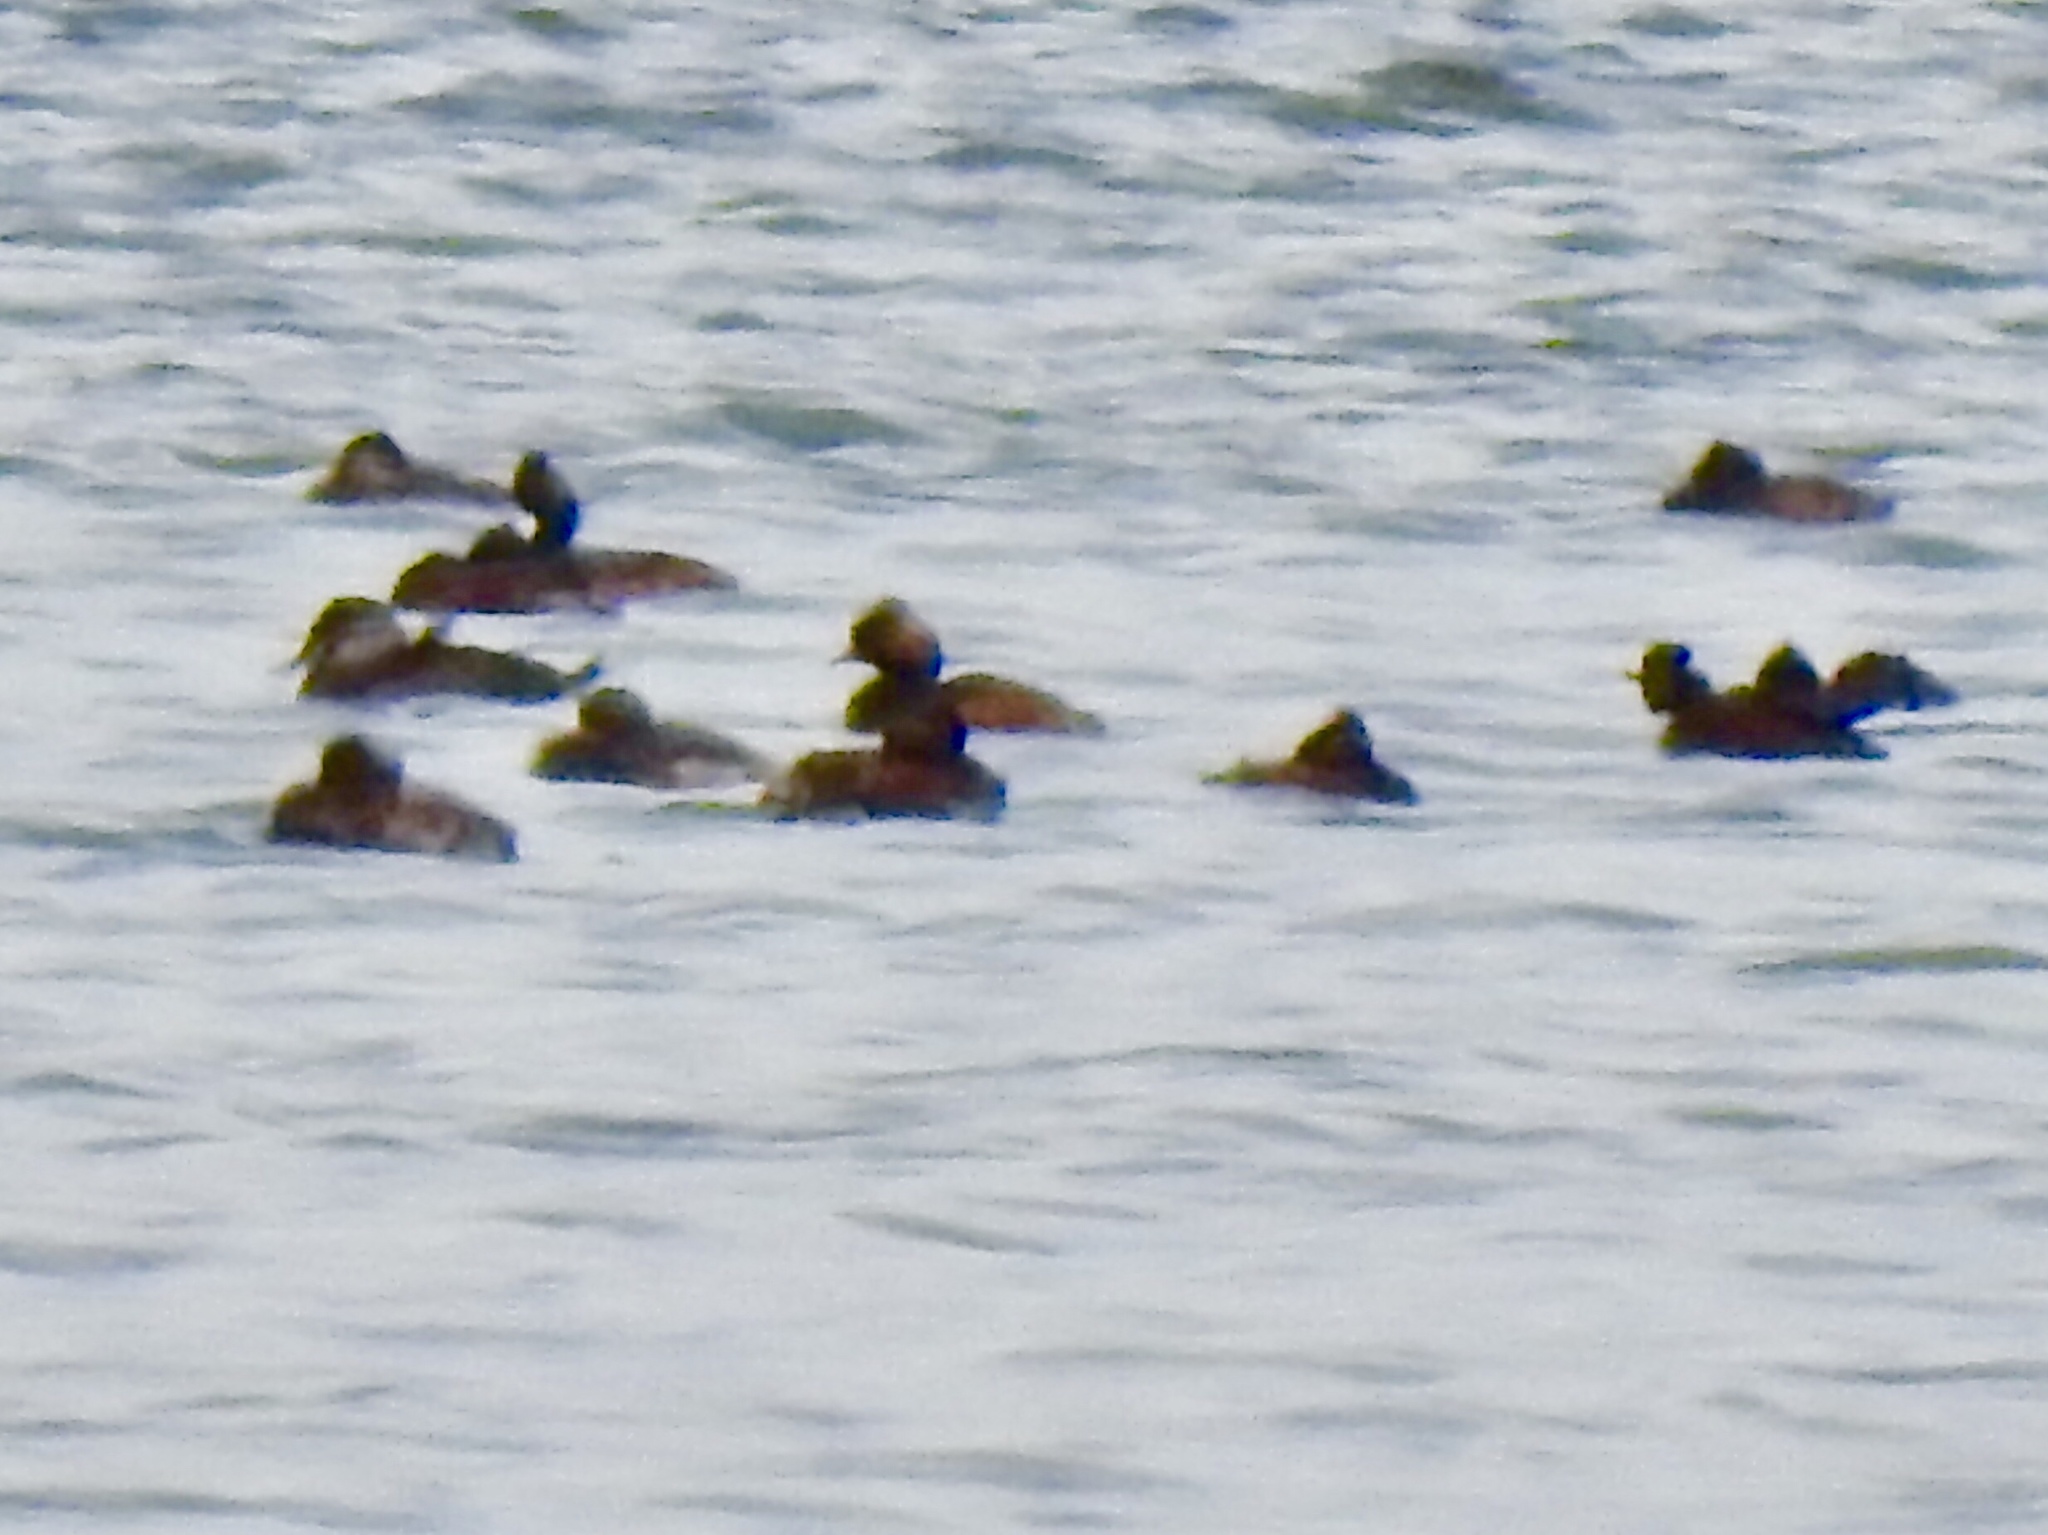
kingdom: Animalia
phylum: Chordata
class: Aves
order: Podicipediformes
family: Podicipedidae
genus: Podiceps
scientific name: Podiceps nigricollis
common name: Black-necked grebe
